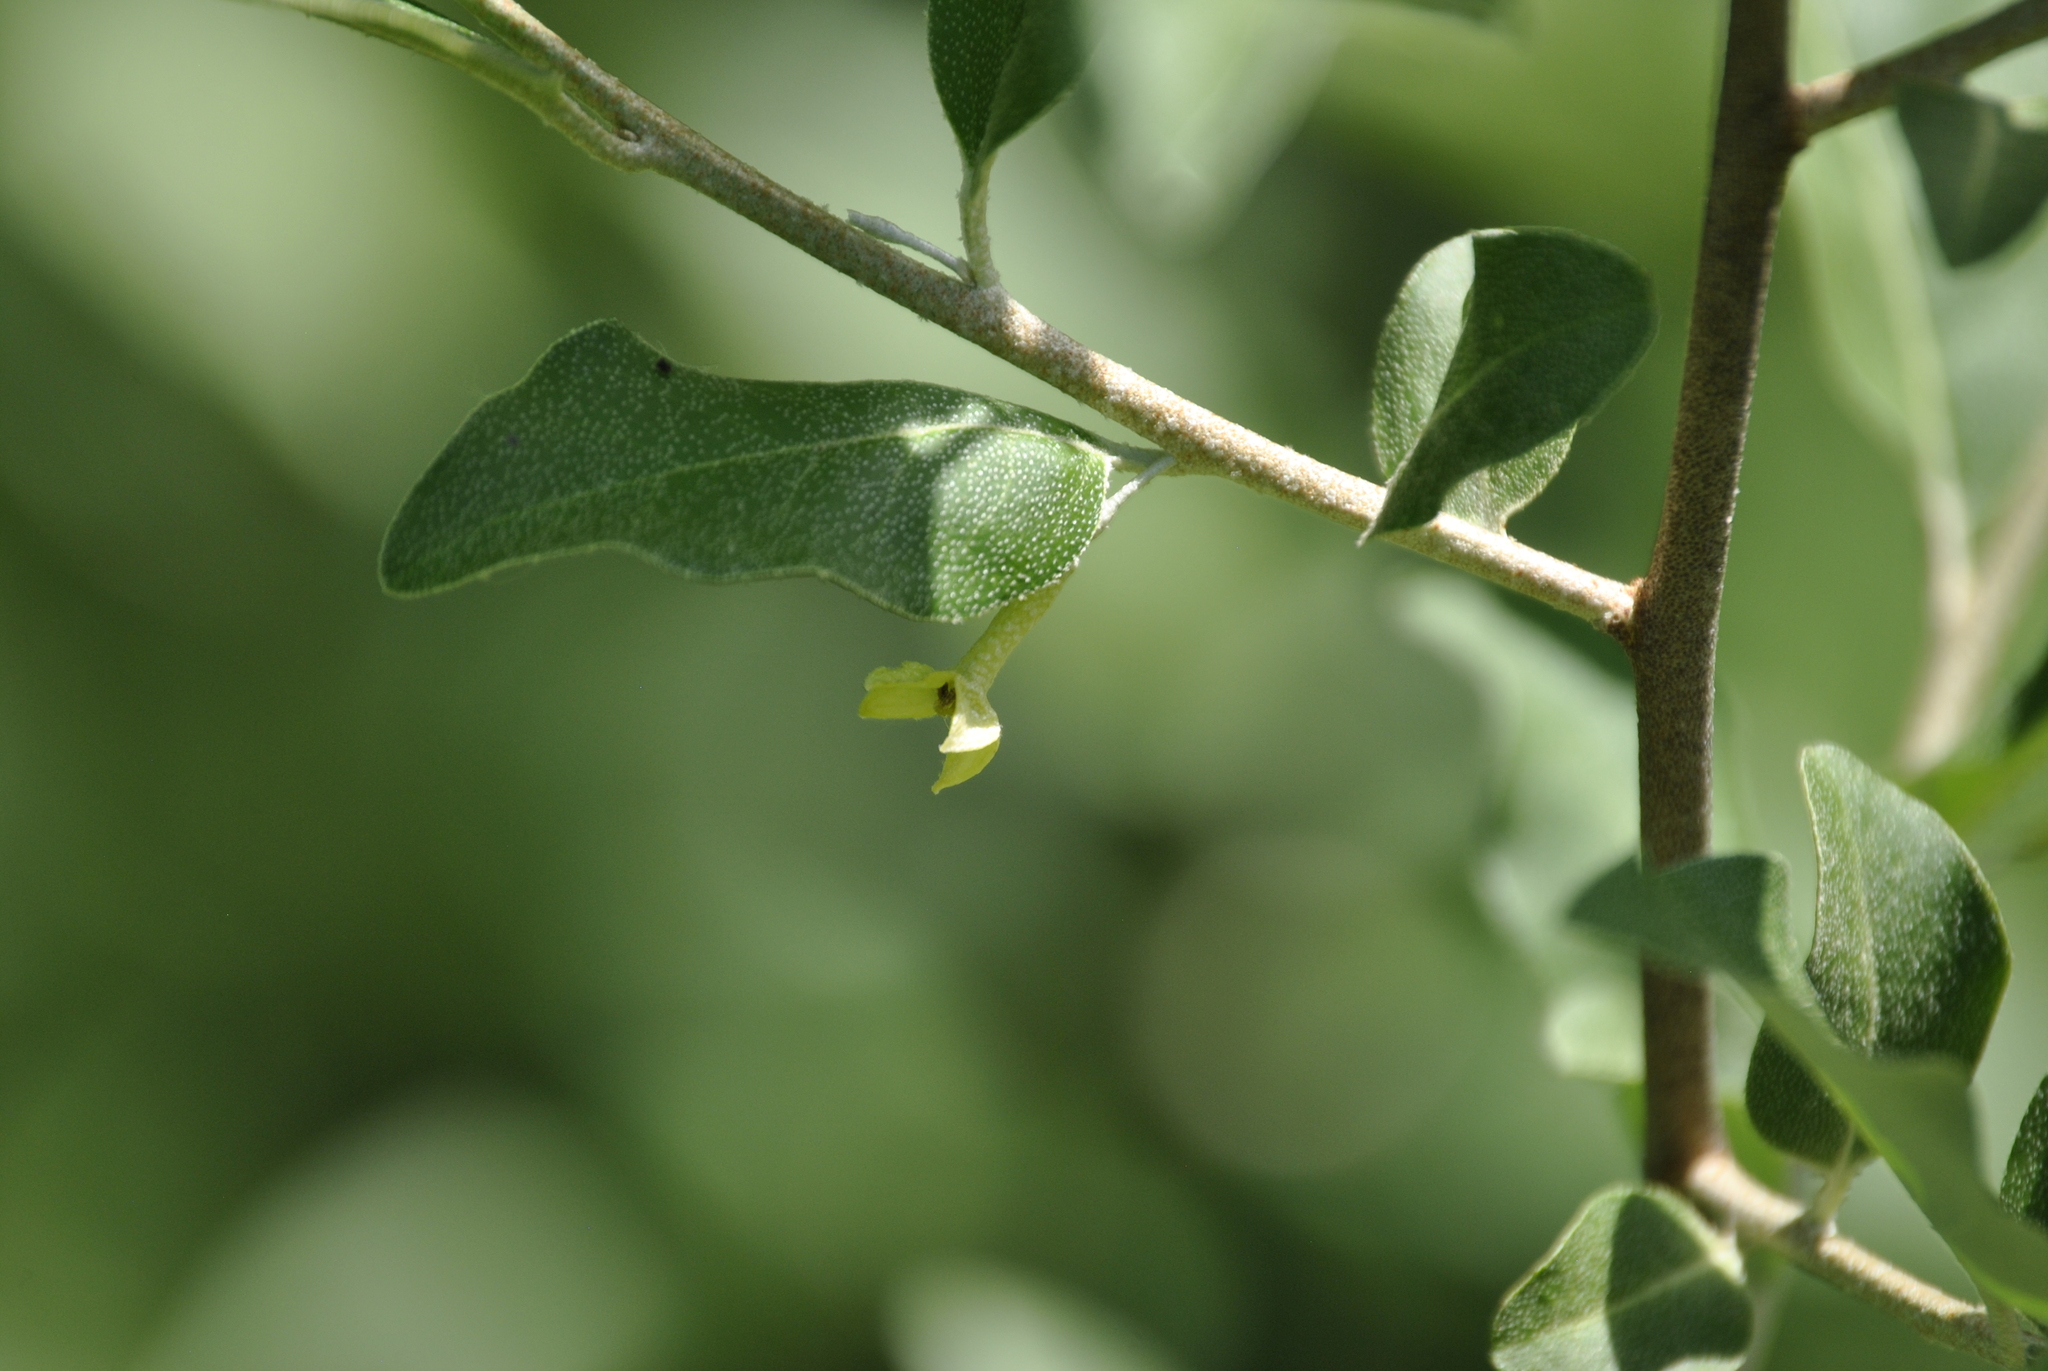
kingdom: Plantae
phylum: Tracheophyta
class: Magnoliopsida
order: Rosales
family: Elaeagnaceae
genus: Elaeagnus
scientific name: Elaeagnus umbellata
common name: Autumn olive
